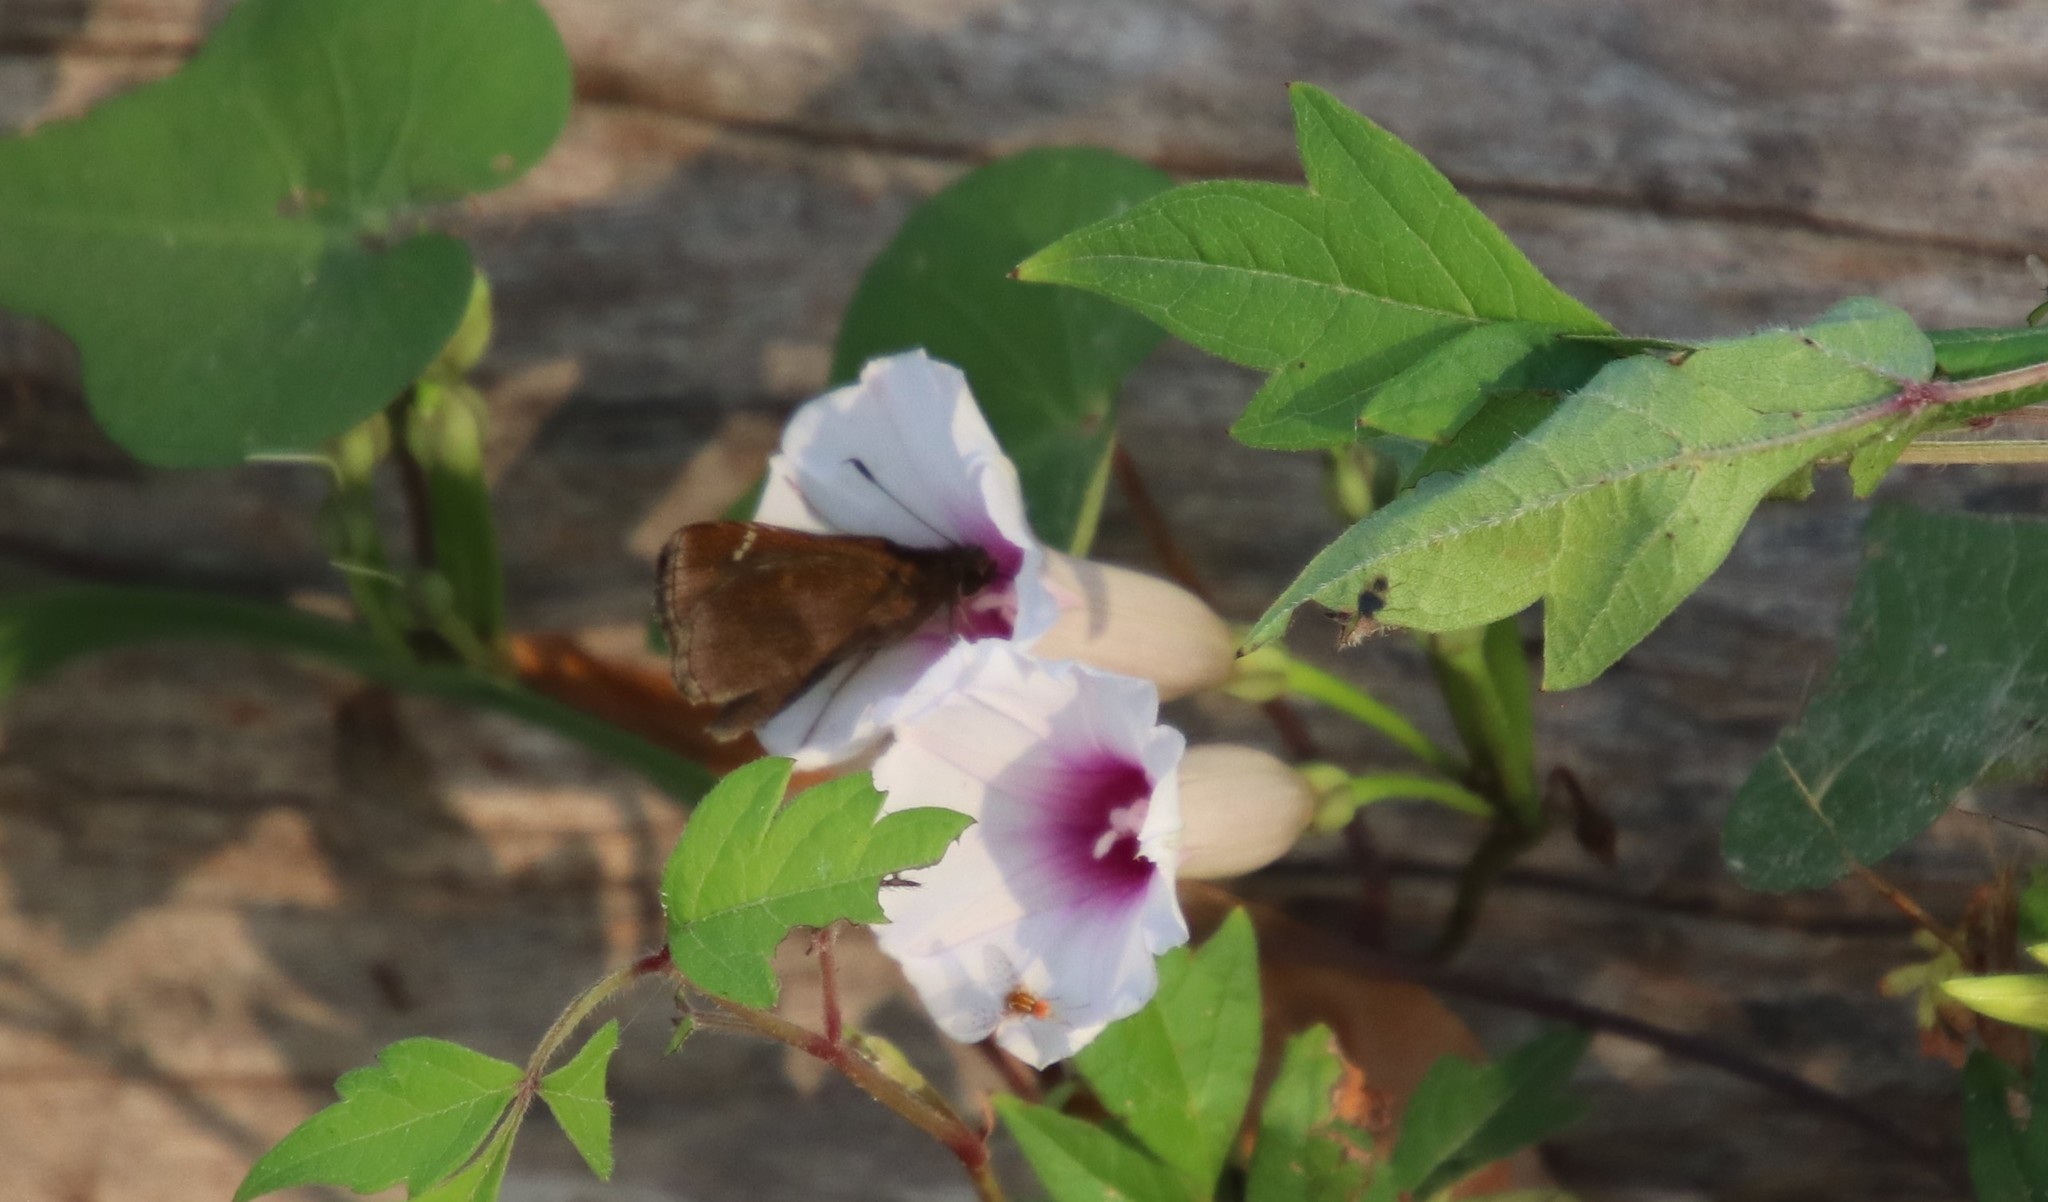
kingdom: Animalia
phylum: Arthropoda
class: Insecta
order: Lepidoptera
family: Hesperiidae
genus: Lerema
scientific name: Lerema accius
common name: Clouded skipper
